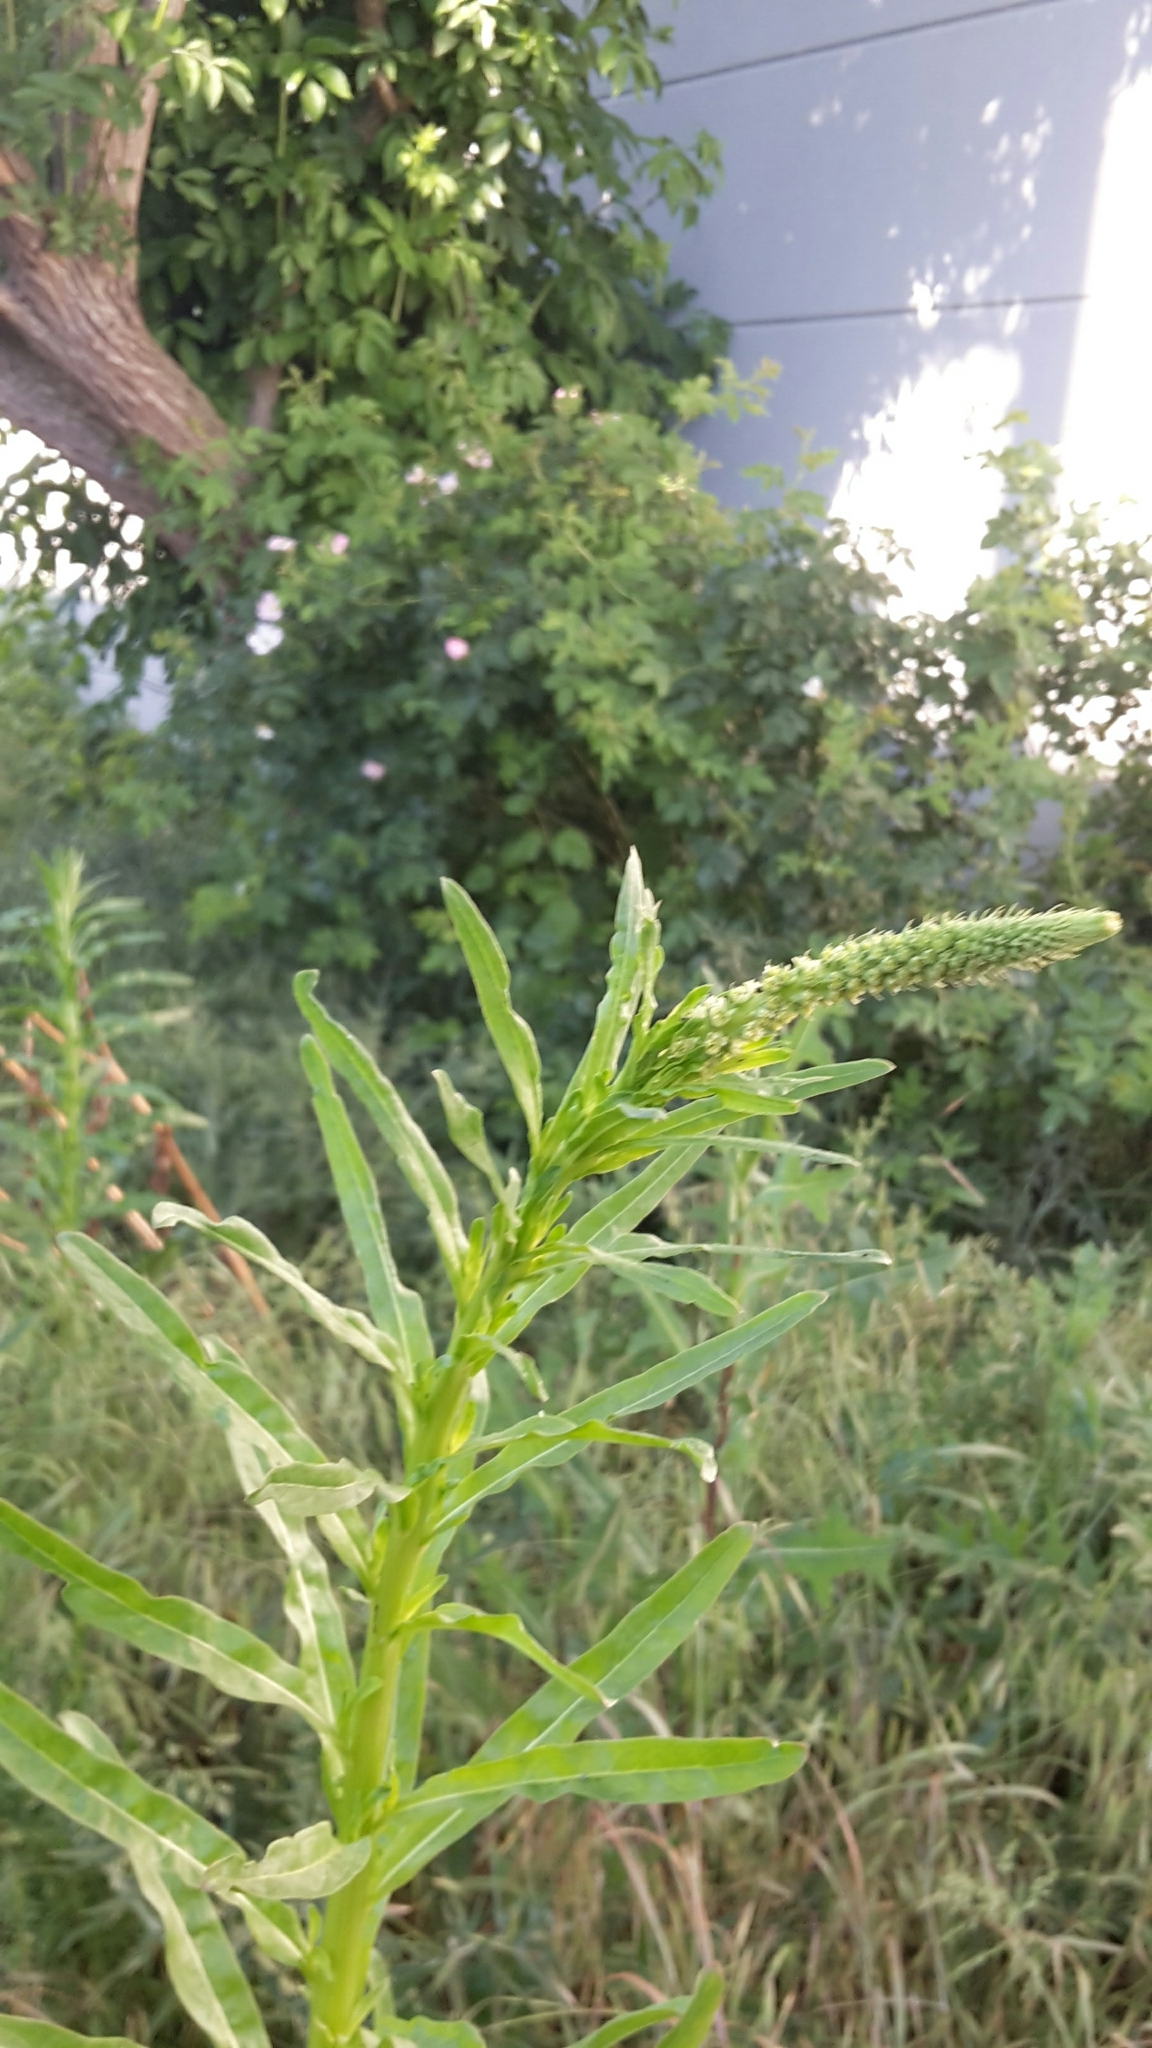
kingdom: Plantae
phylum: Tracheophyta
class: Magnoliopsida
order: Brassicales
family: Resedaceae
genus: Reseda
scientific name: Reseda luteola
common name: Weld
